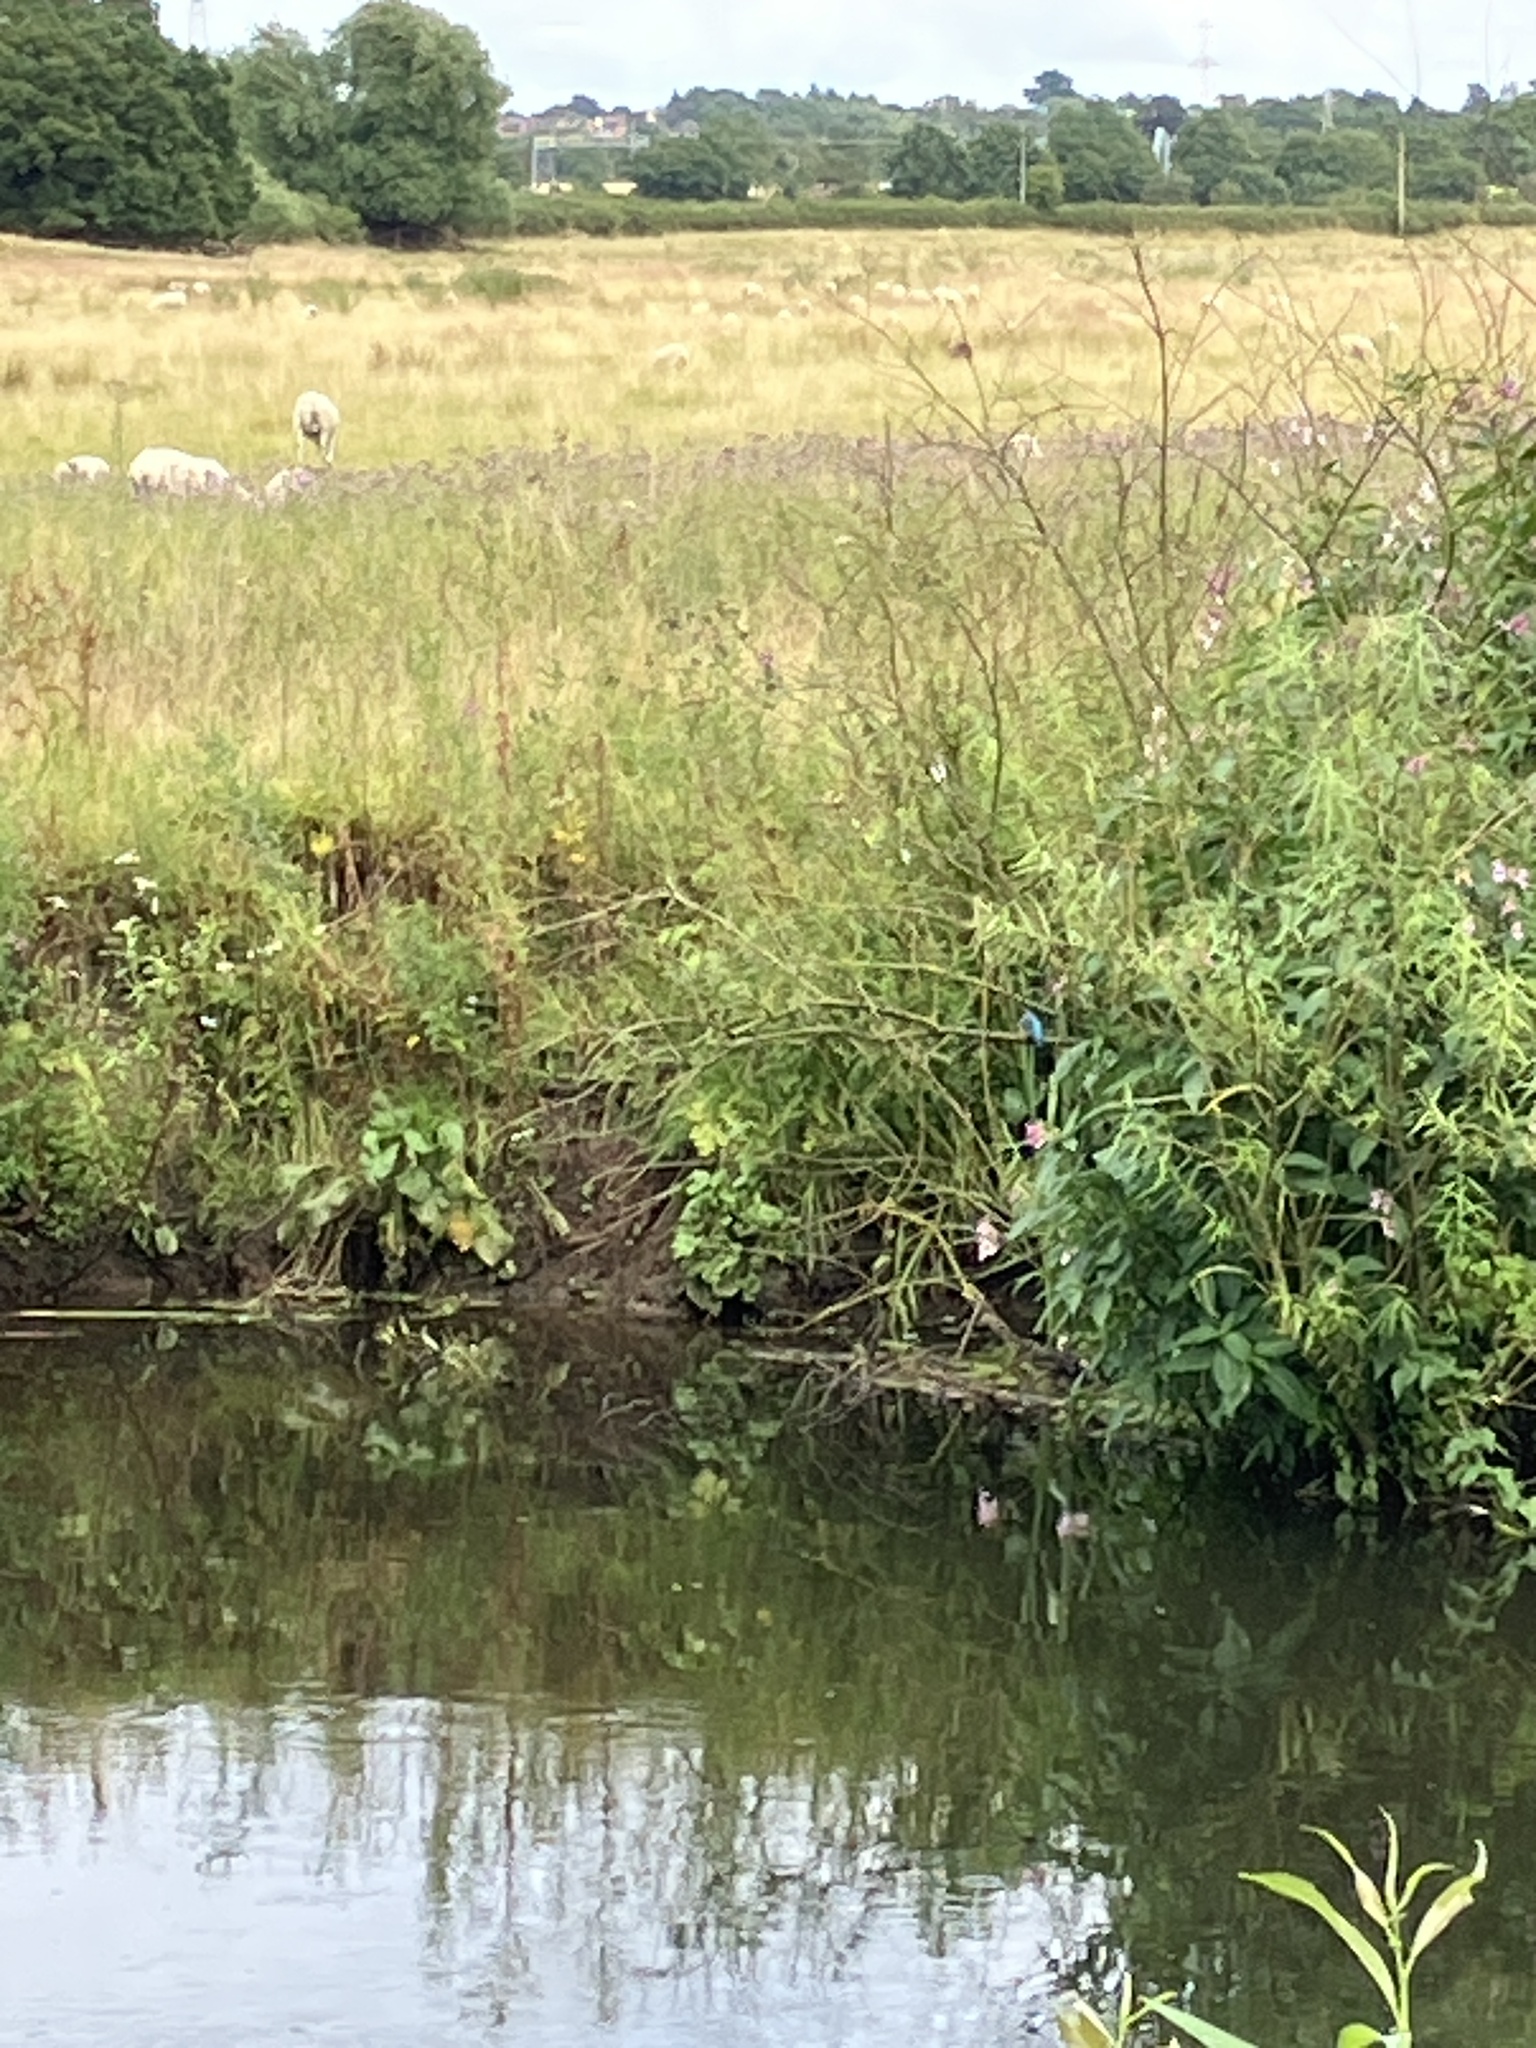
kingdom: Animalia
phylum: Chordata
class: Aves
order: Coraciiformes
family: Alcedinidae
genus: Alcedo
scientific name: Alcedo atthis
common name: Common kingfisher
